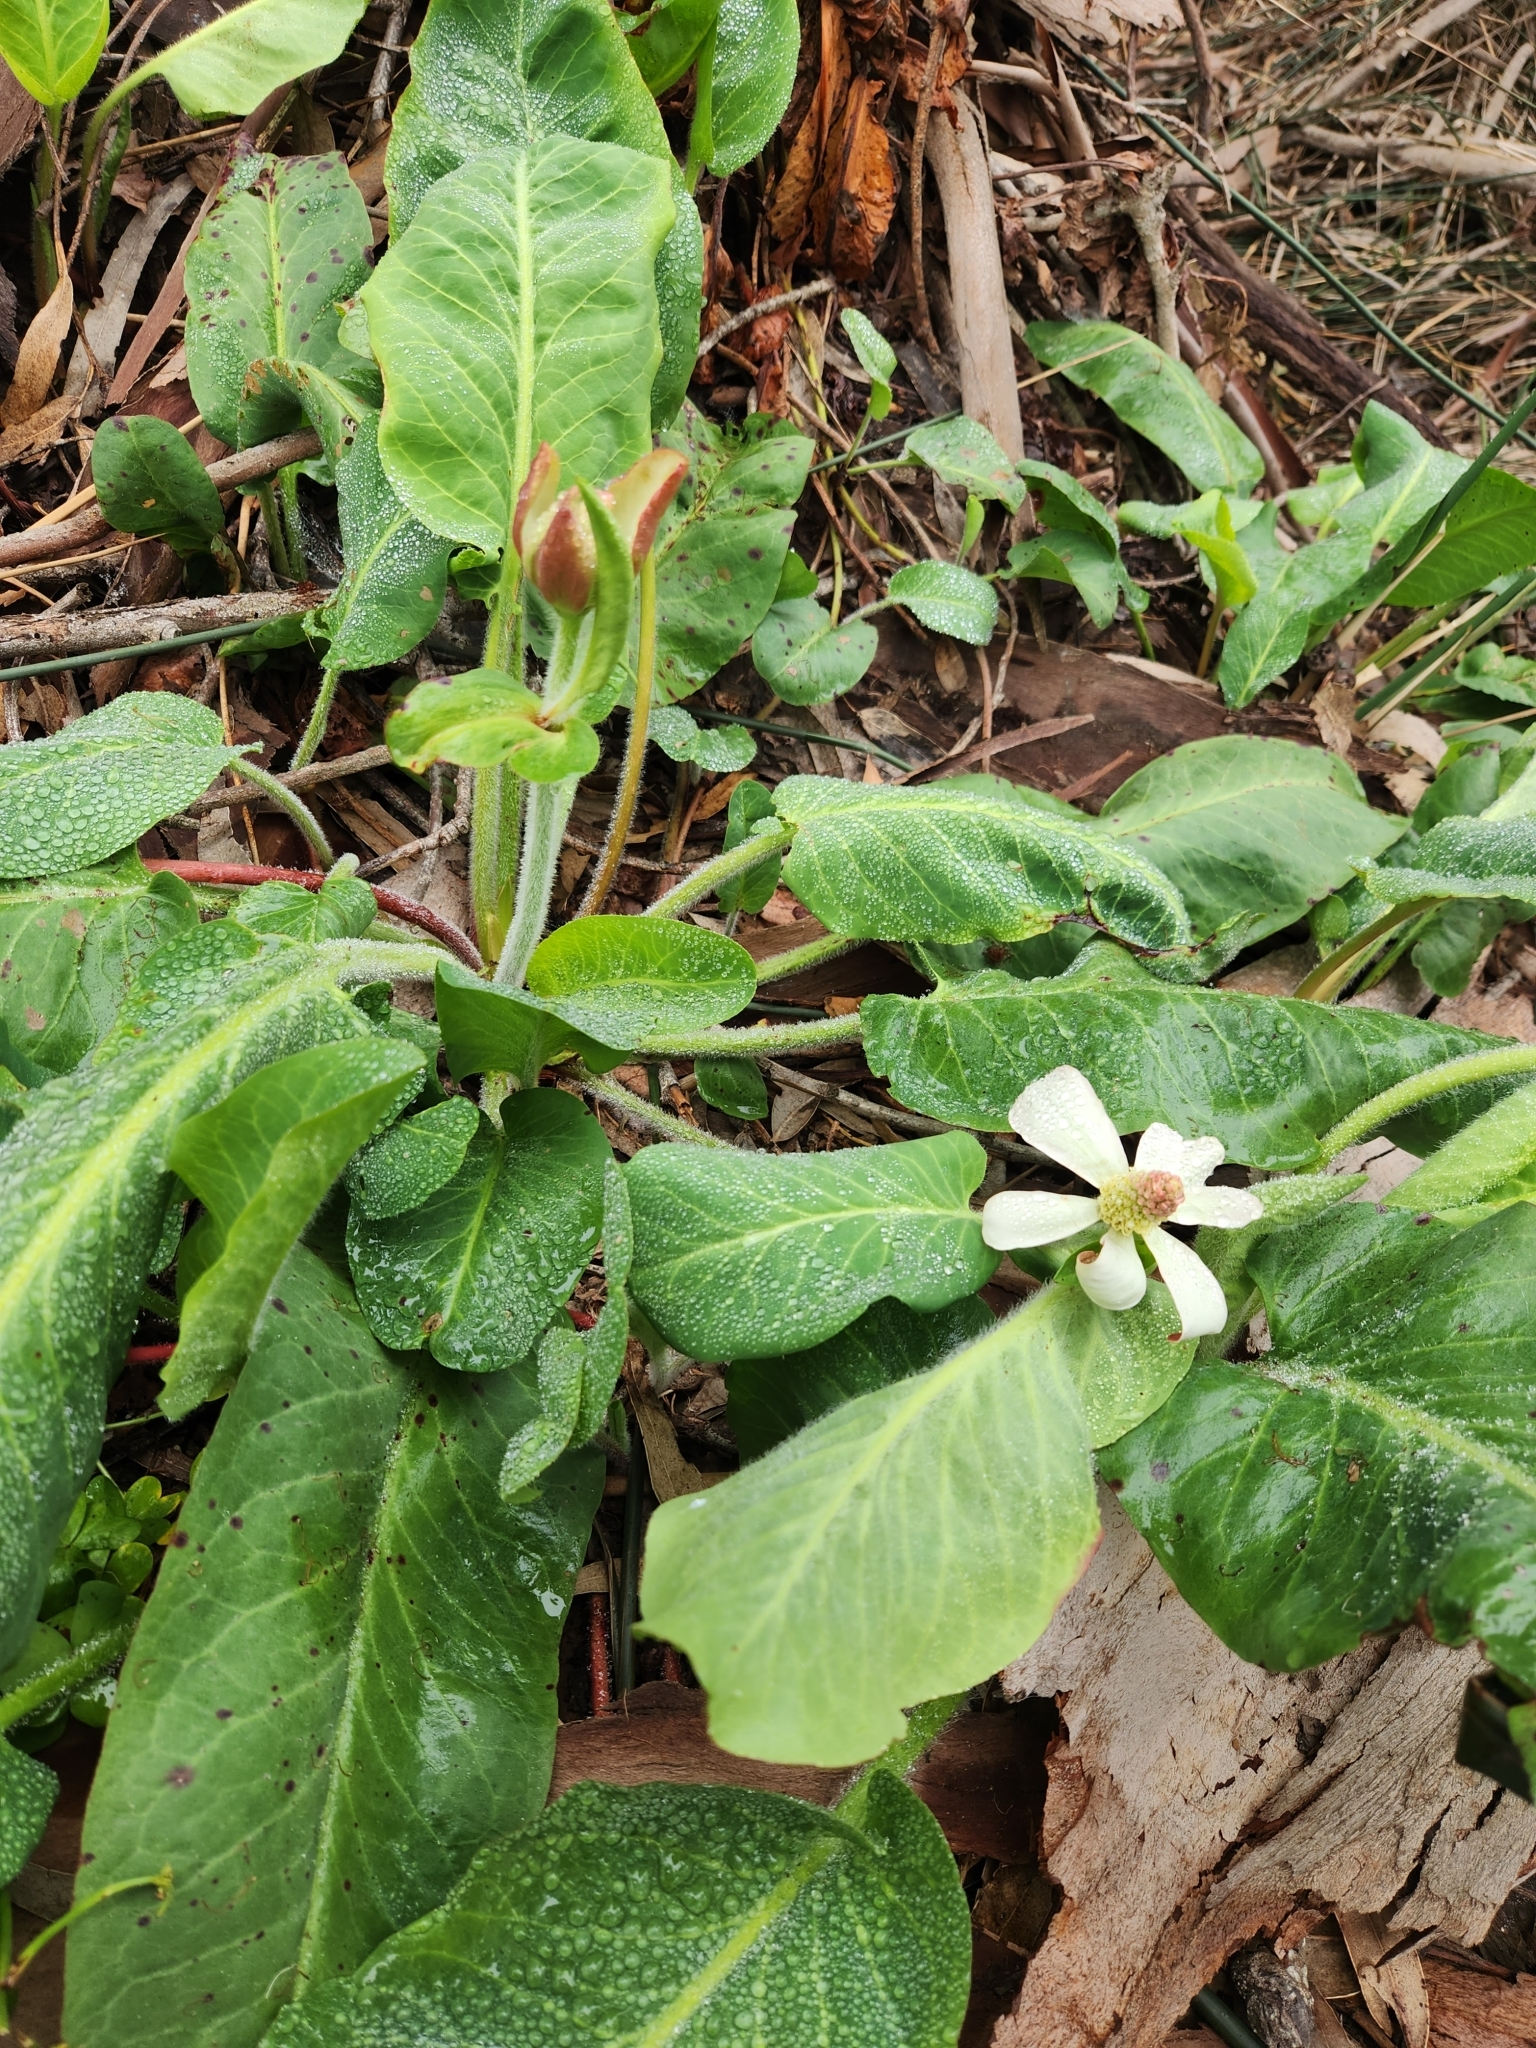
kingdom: Plantae
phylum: Tracheophyta
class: Magnoliopsida
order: Piperales
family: Saururaceae
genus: Anemopsis
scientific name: Anemopsis californica
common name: Apache-beads
